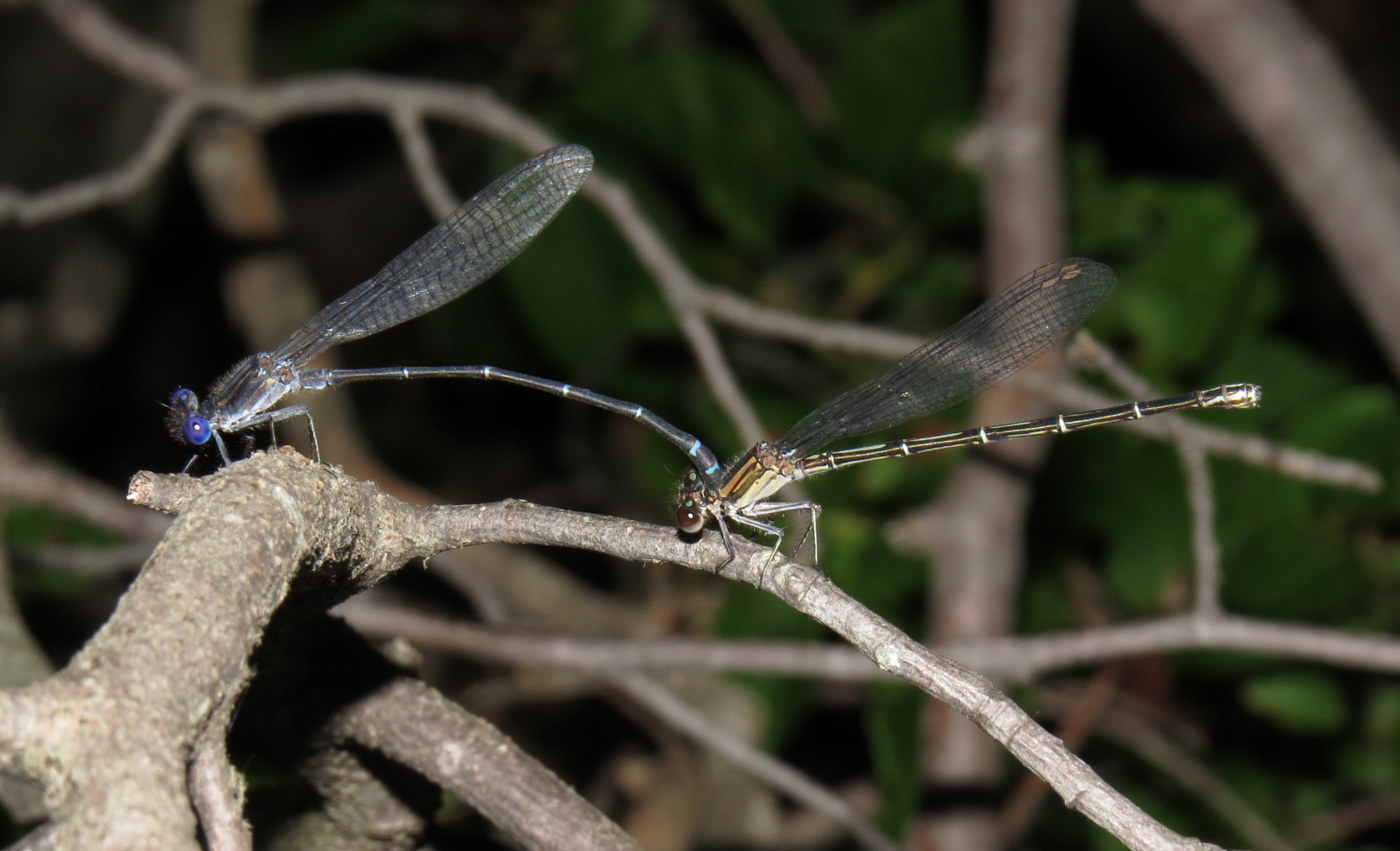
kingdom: Animalia
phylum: Arthropoda
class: Insecta
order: Odonata
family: Coenagrionidae
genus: Argia
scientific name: Argia translata
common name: Dusky dancer
